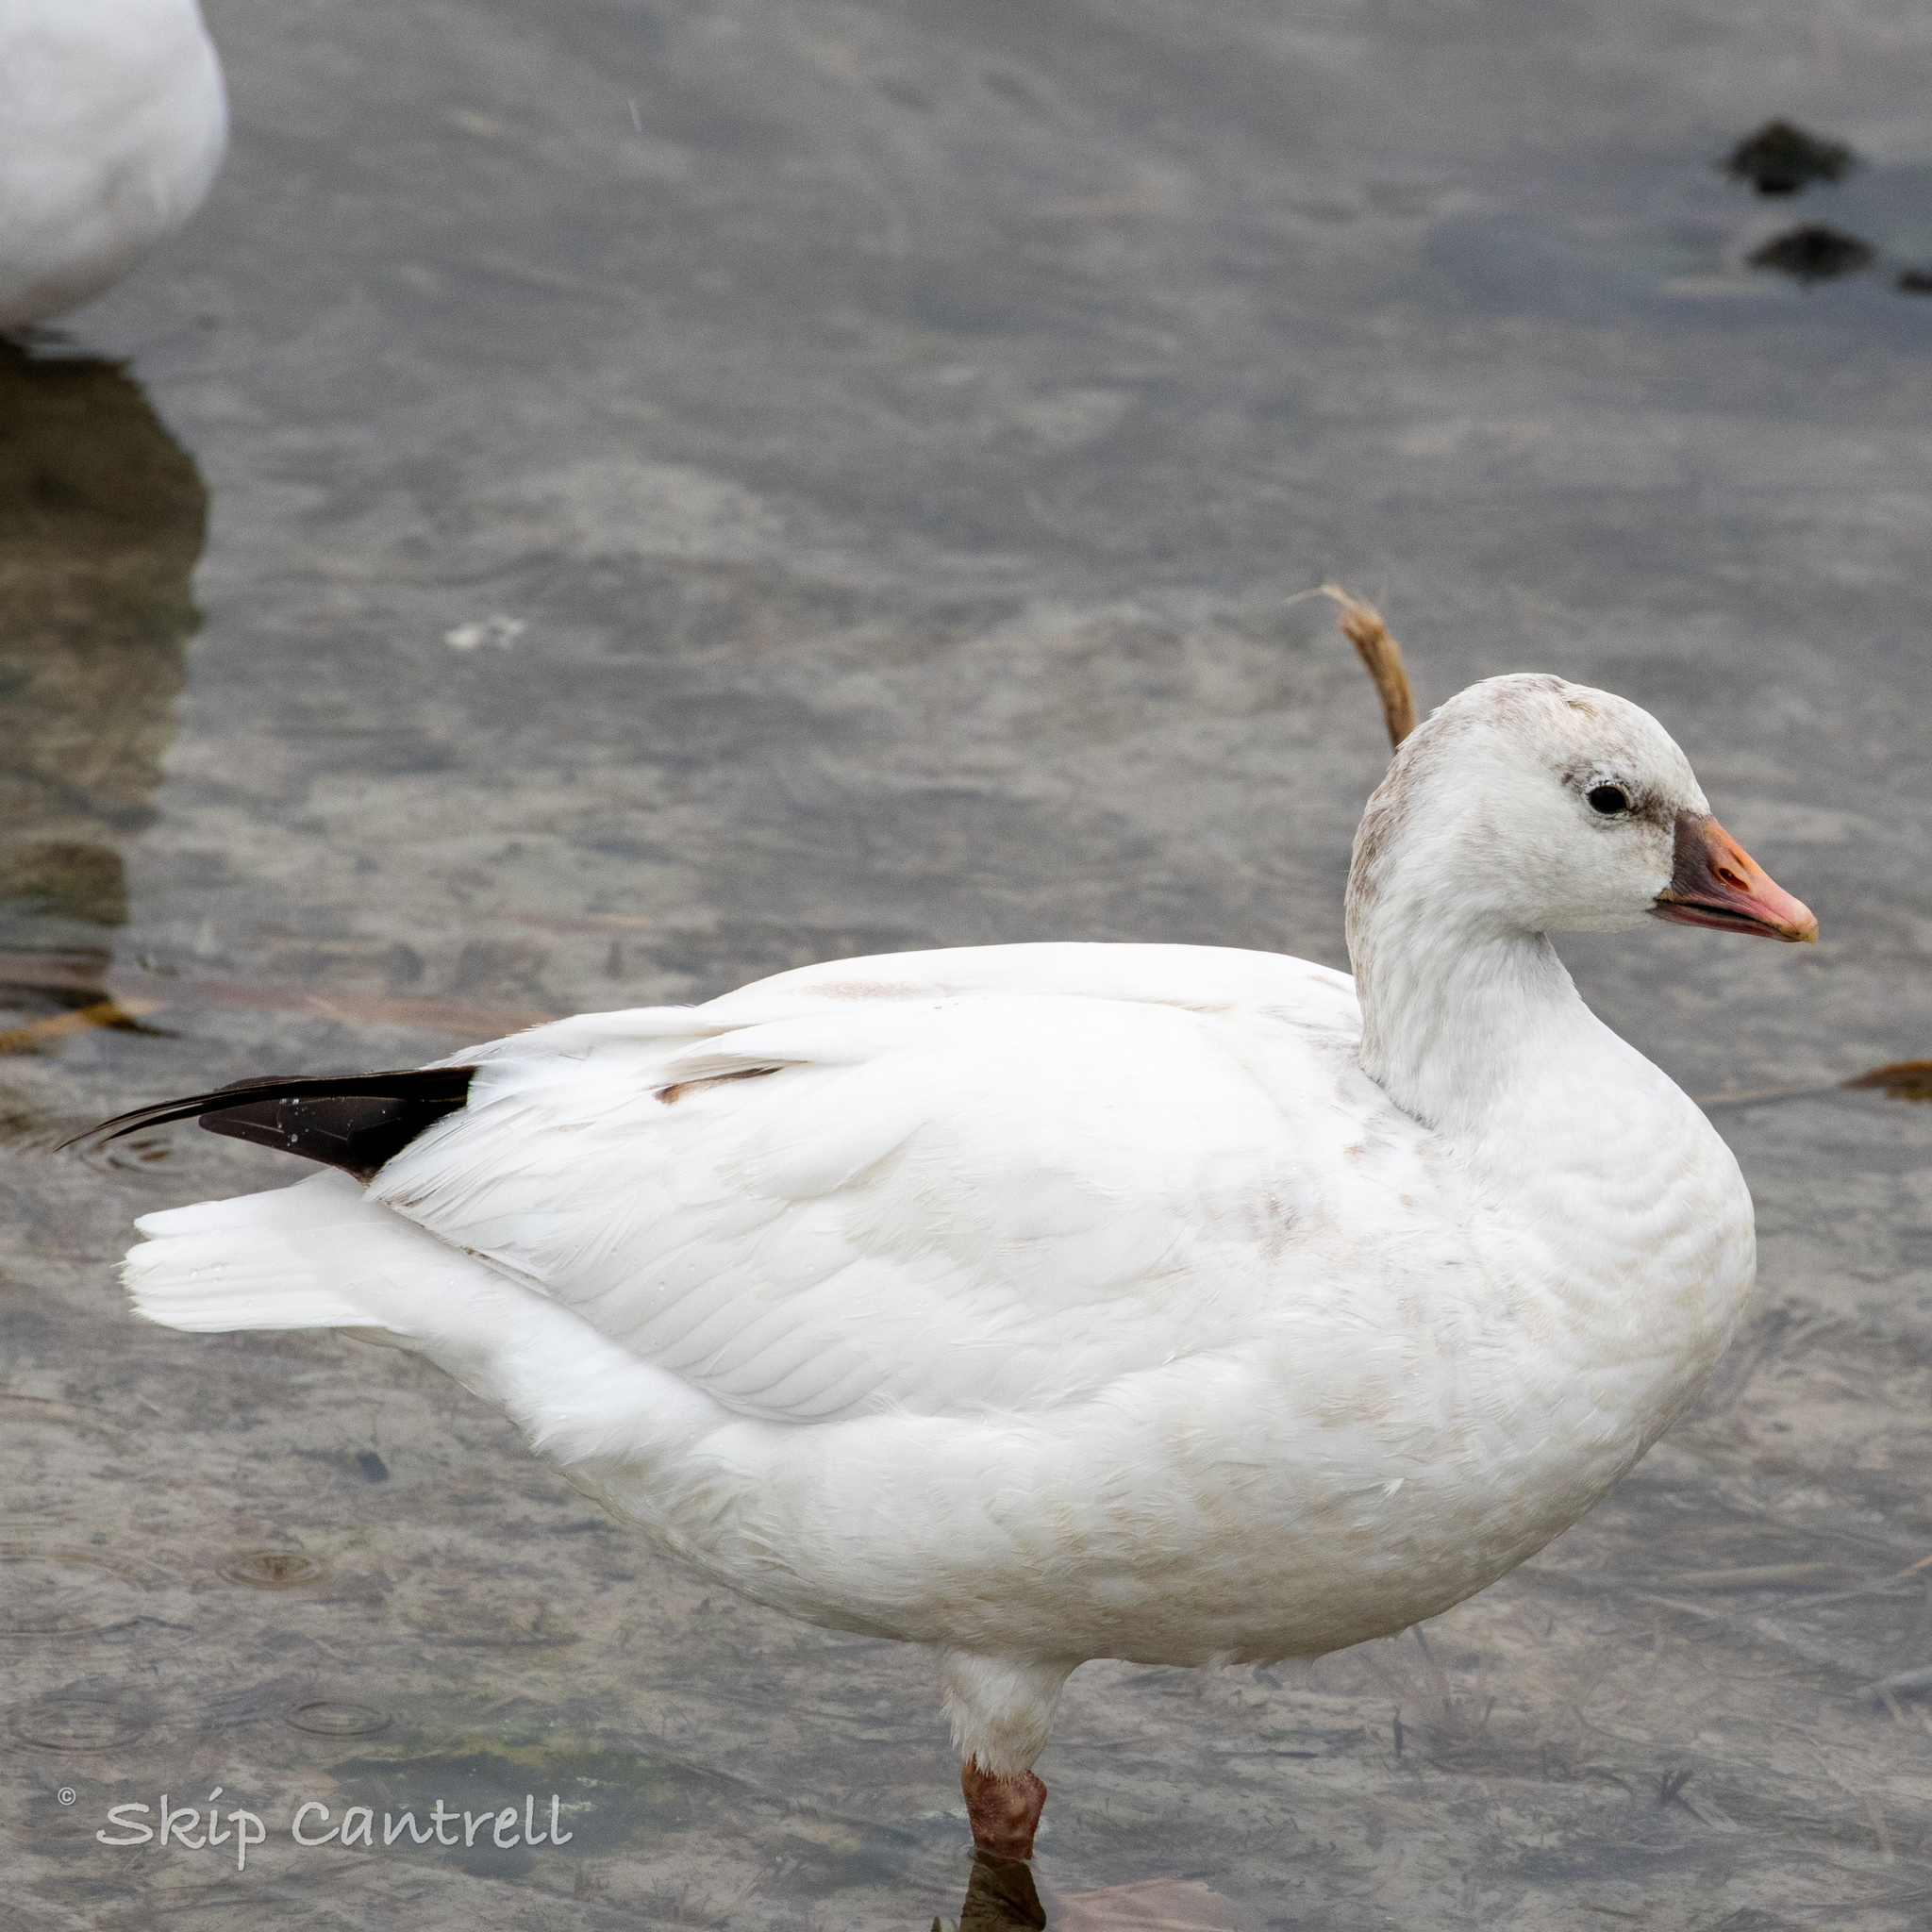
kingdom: Animalia
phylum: Chordata
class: Aves
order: Anseriformes
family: Anatidae
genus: Anser
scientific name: Anser rossii
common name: Ross's goose
